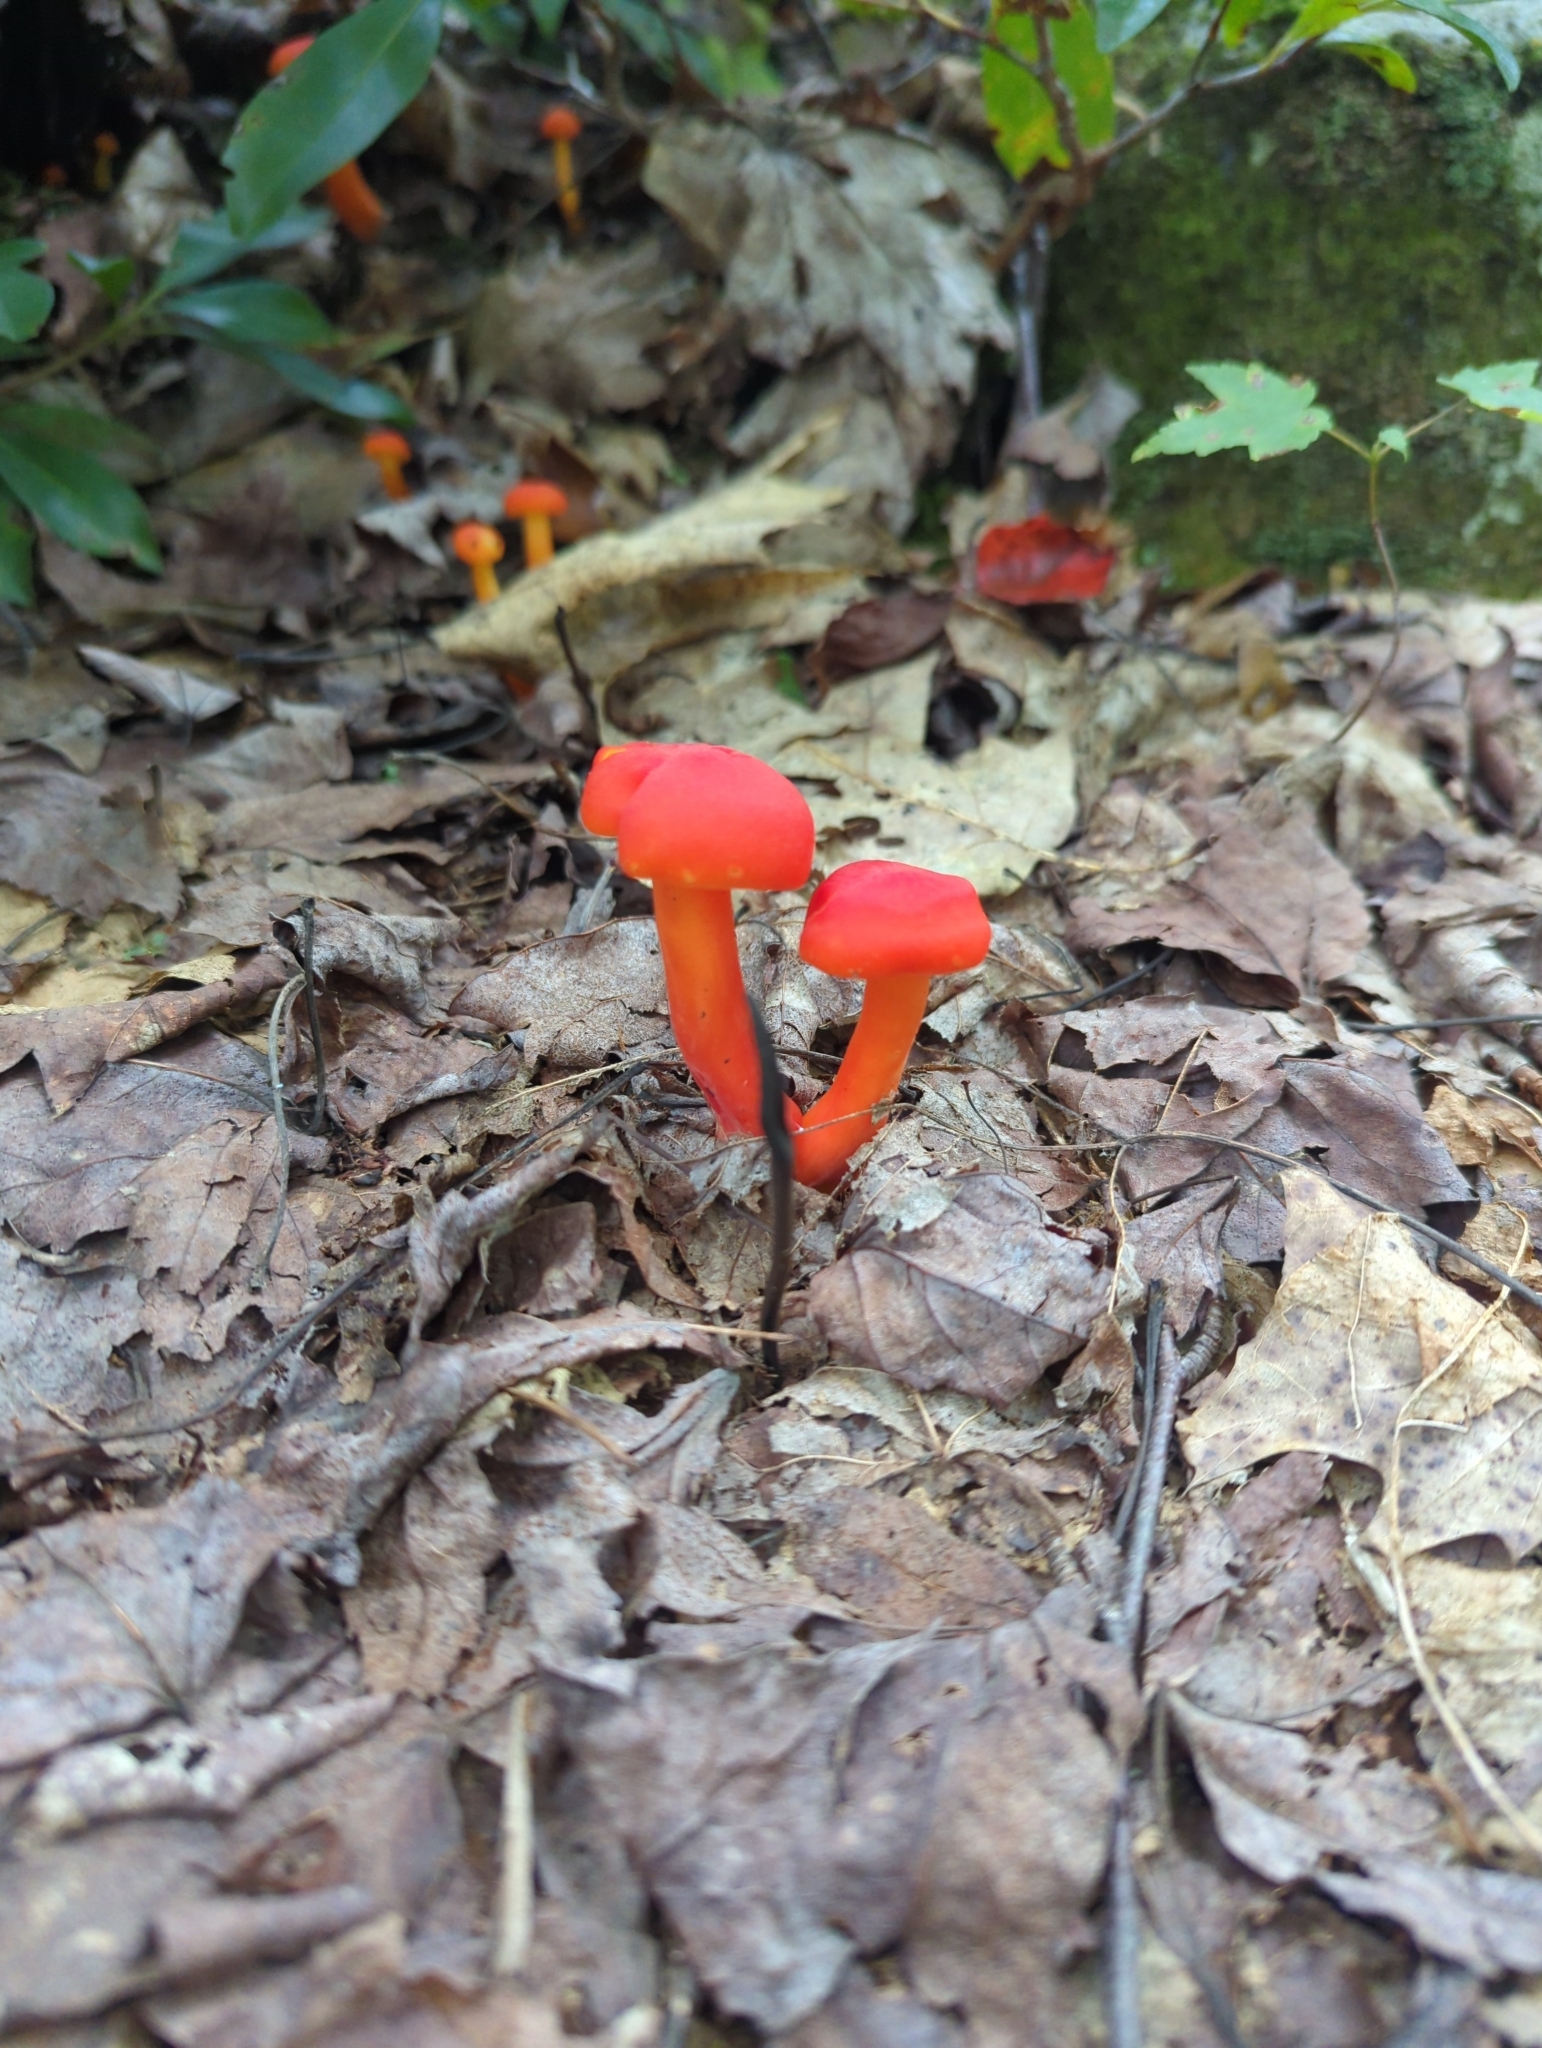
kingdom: Fungi
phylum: Basidiomycota
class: Agaricomycetes
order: Agaricales
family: Hygrophoraceae
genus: Hygrocybe
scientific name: Hygrocybe miniata
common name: Vermilion waxcap
